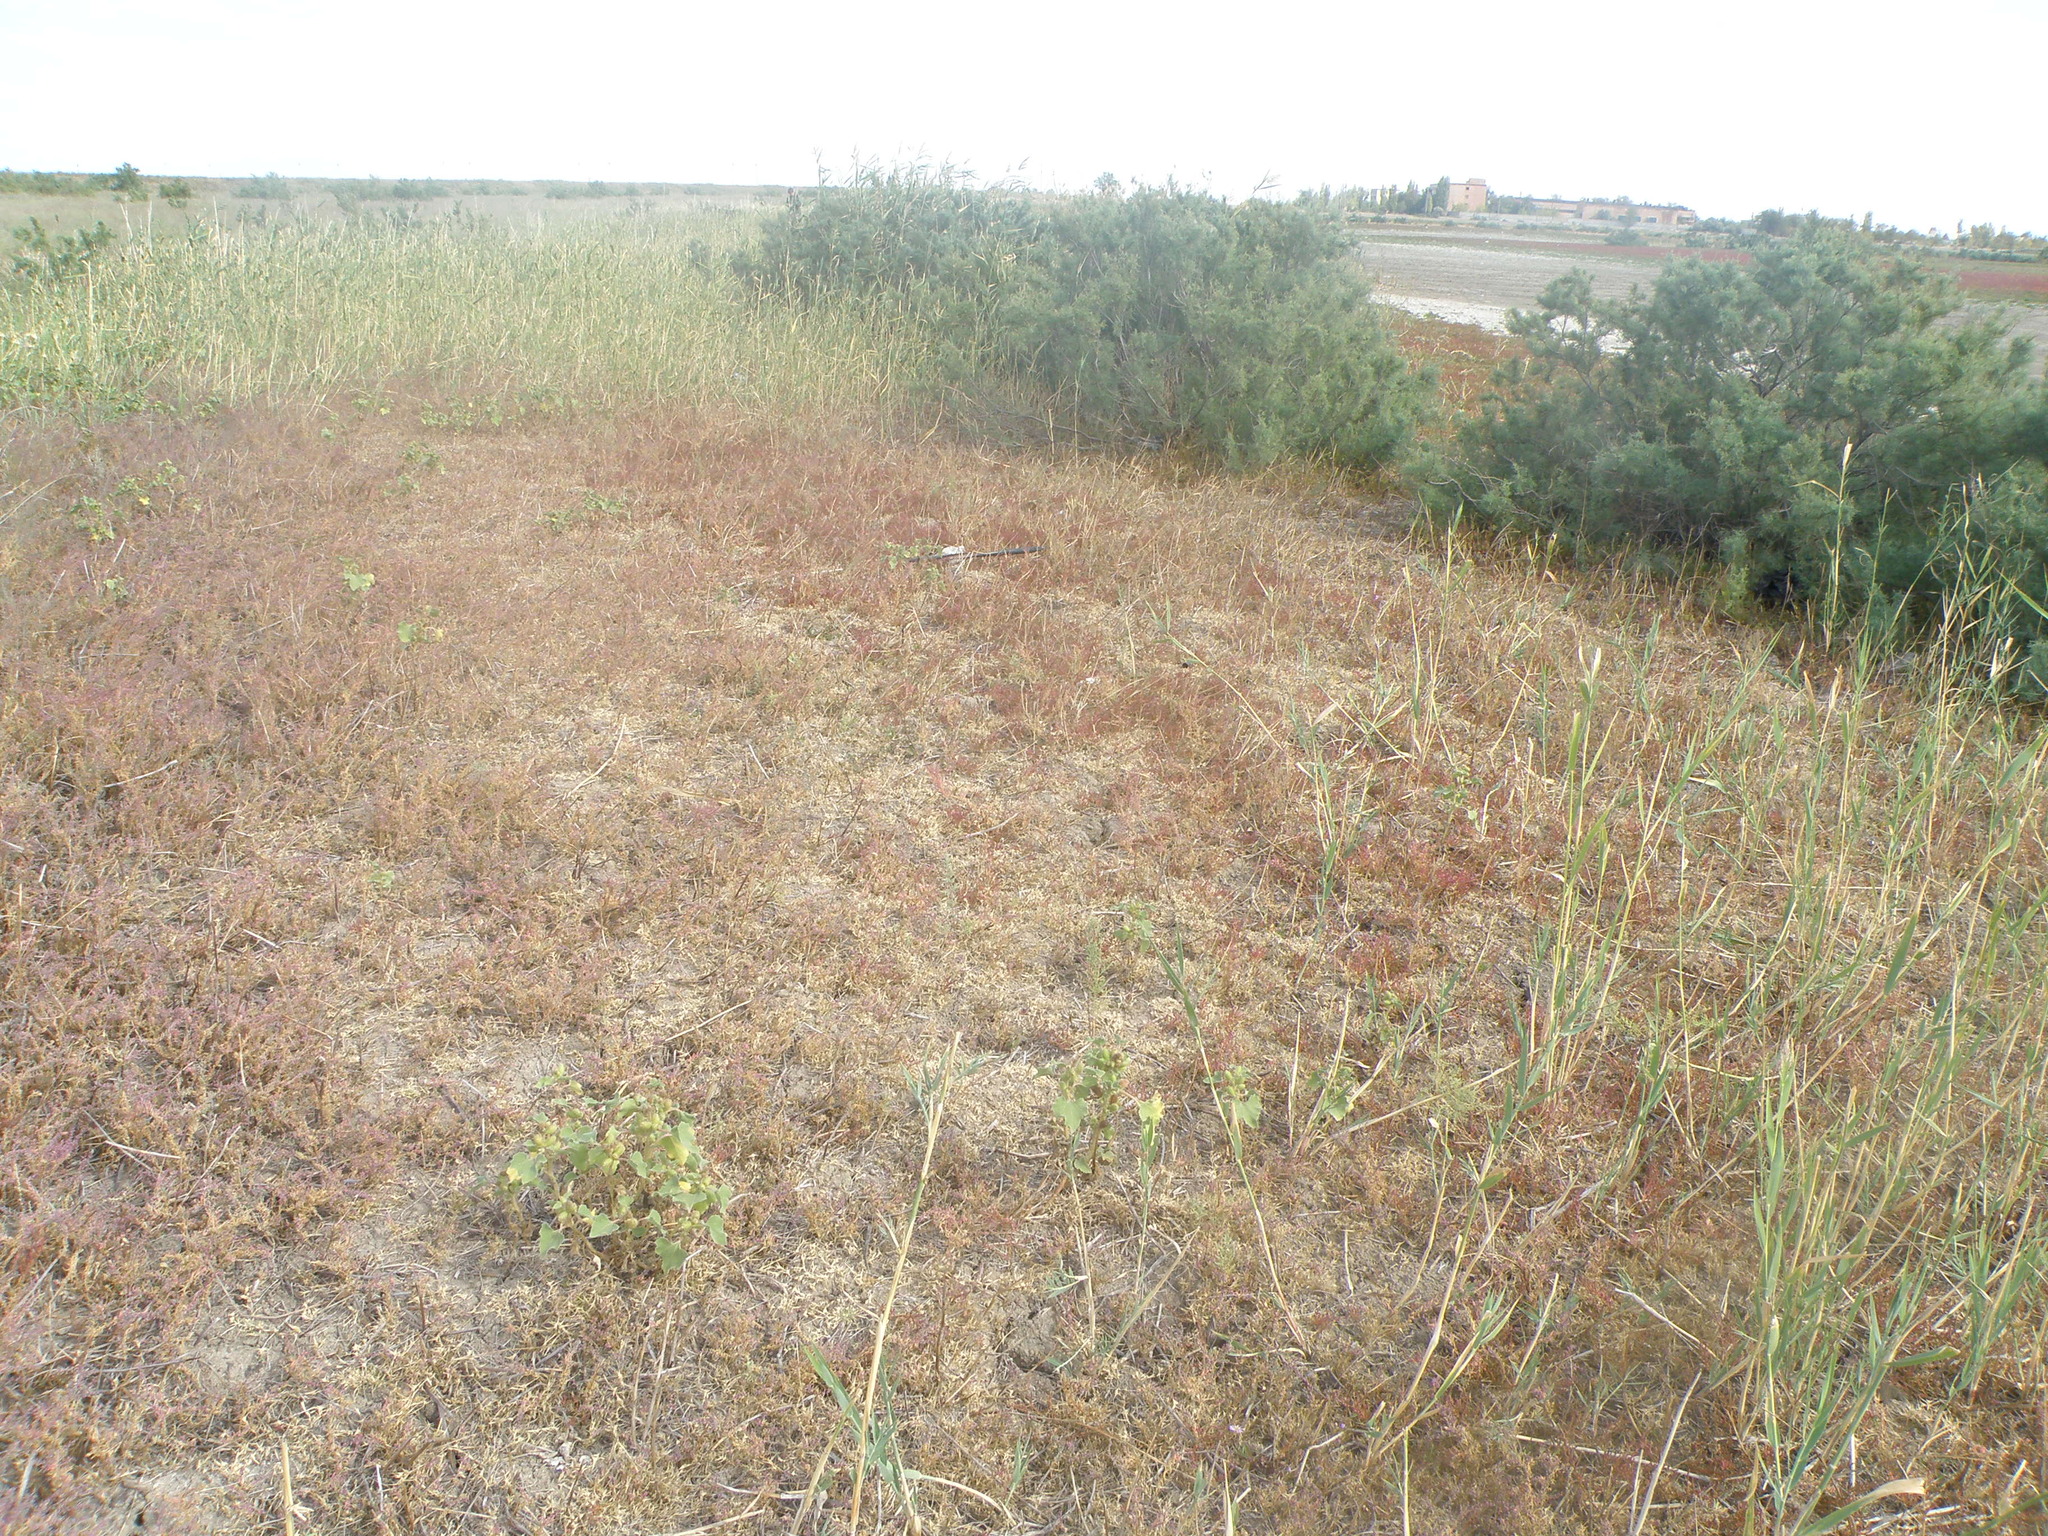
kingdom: Plantae
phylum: Tracheophyta
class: Magnoliopsida
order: Caryophyllales
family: Tamaricaceae
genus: Tamarix
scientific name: Tamarix ramosissima
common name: Pink tamarisk
